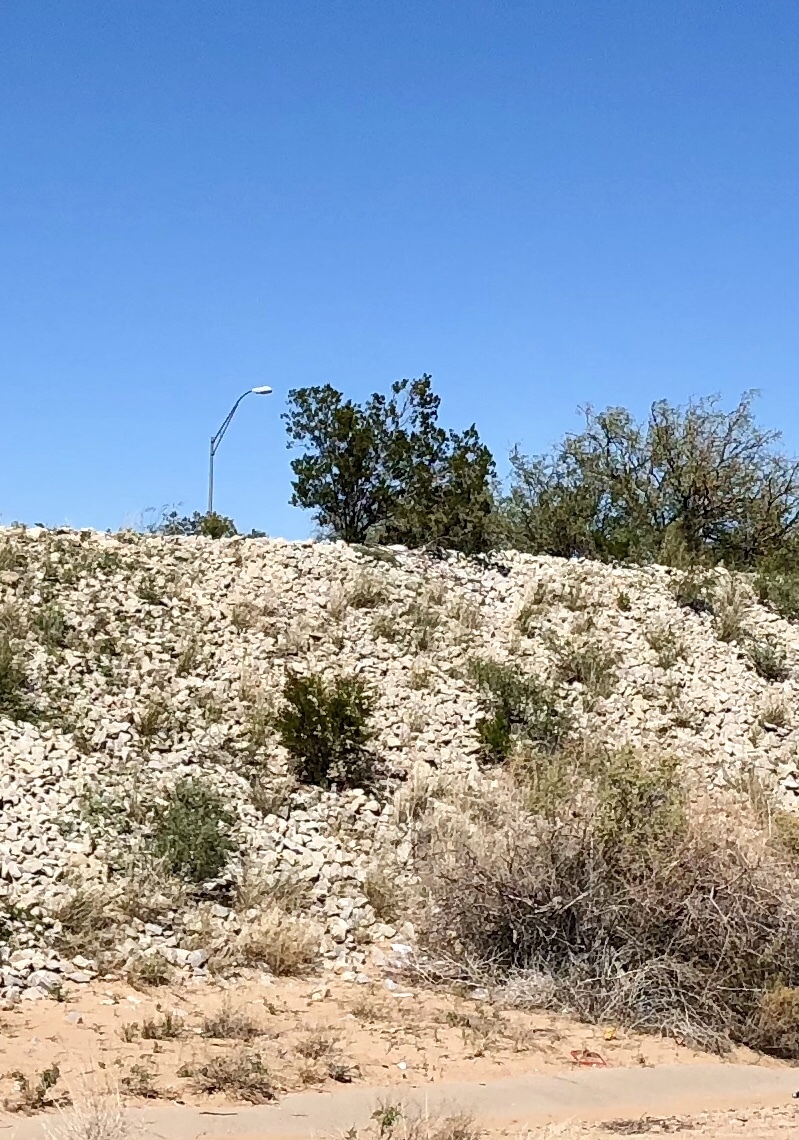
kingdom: Plantae
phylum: Tracheophyta
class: Magnoliopsida
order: Zygophyllales
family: Zygophyllaceae
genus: Larrea
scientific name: Larrea tridentata
